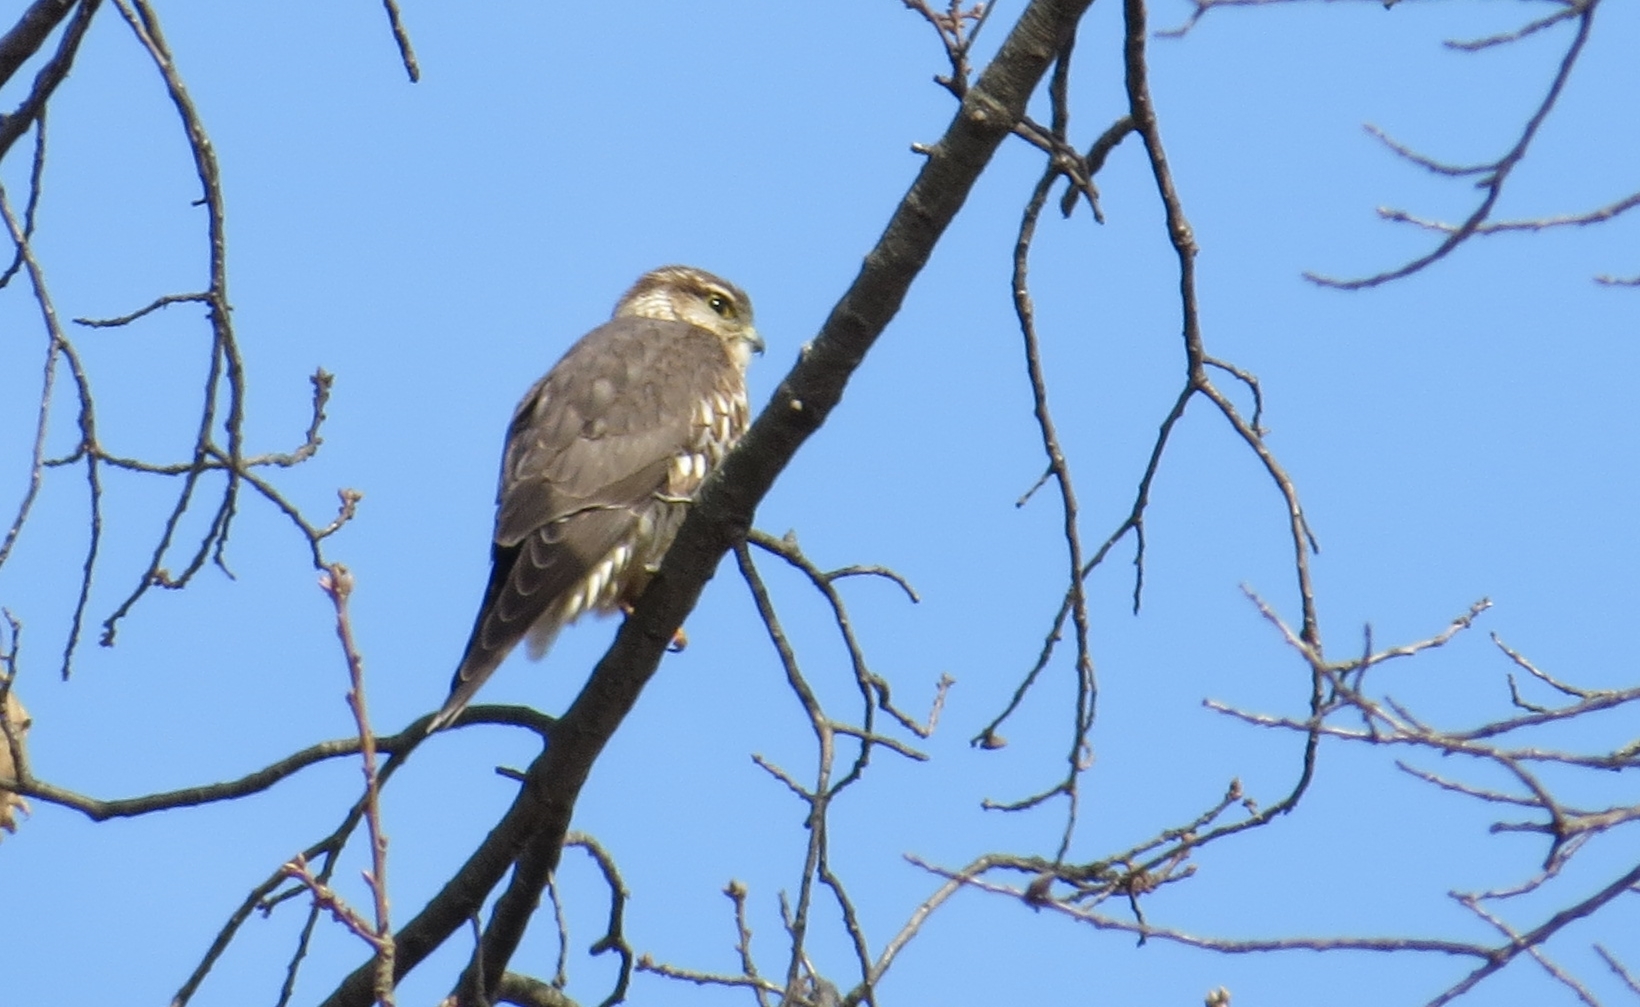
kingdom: Animalia
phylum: Chordata
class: Aves
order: Falconiformes
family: Falconidae
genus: Falco
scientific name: Falco columbarius
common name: Merlin
